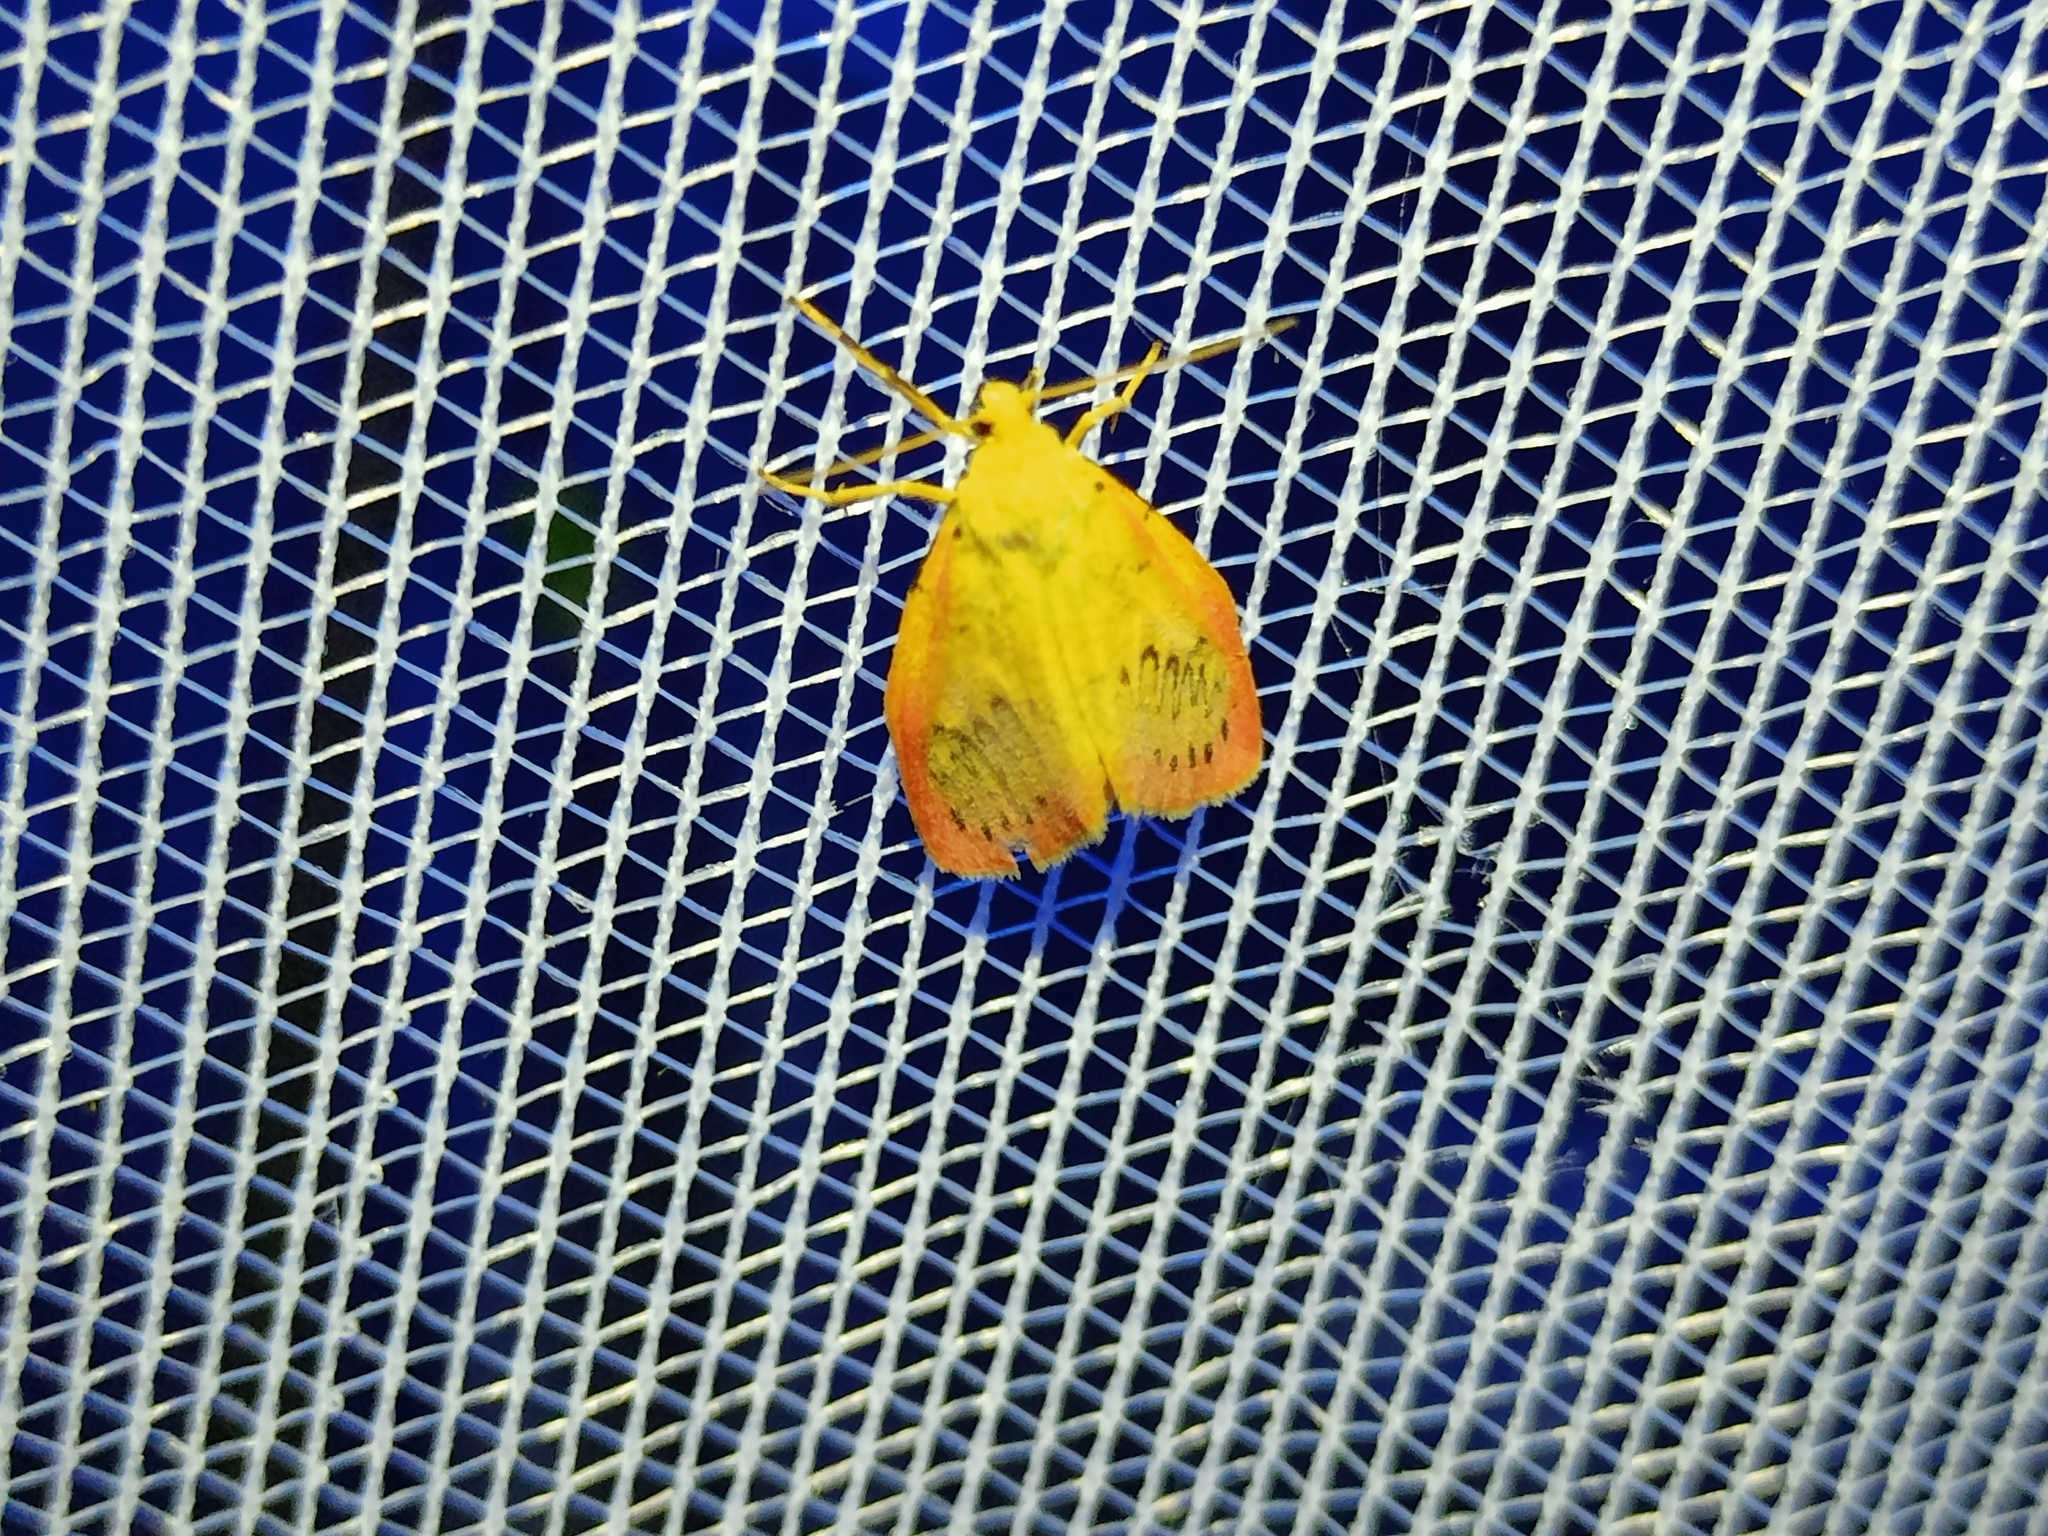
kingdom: Animalia
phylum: Arthropoda
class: Insecta
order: Lepidoptera
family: Erebidae
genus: Miltochrista
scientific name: Miltochrista miniata
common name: Rosy footman
